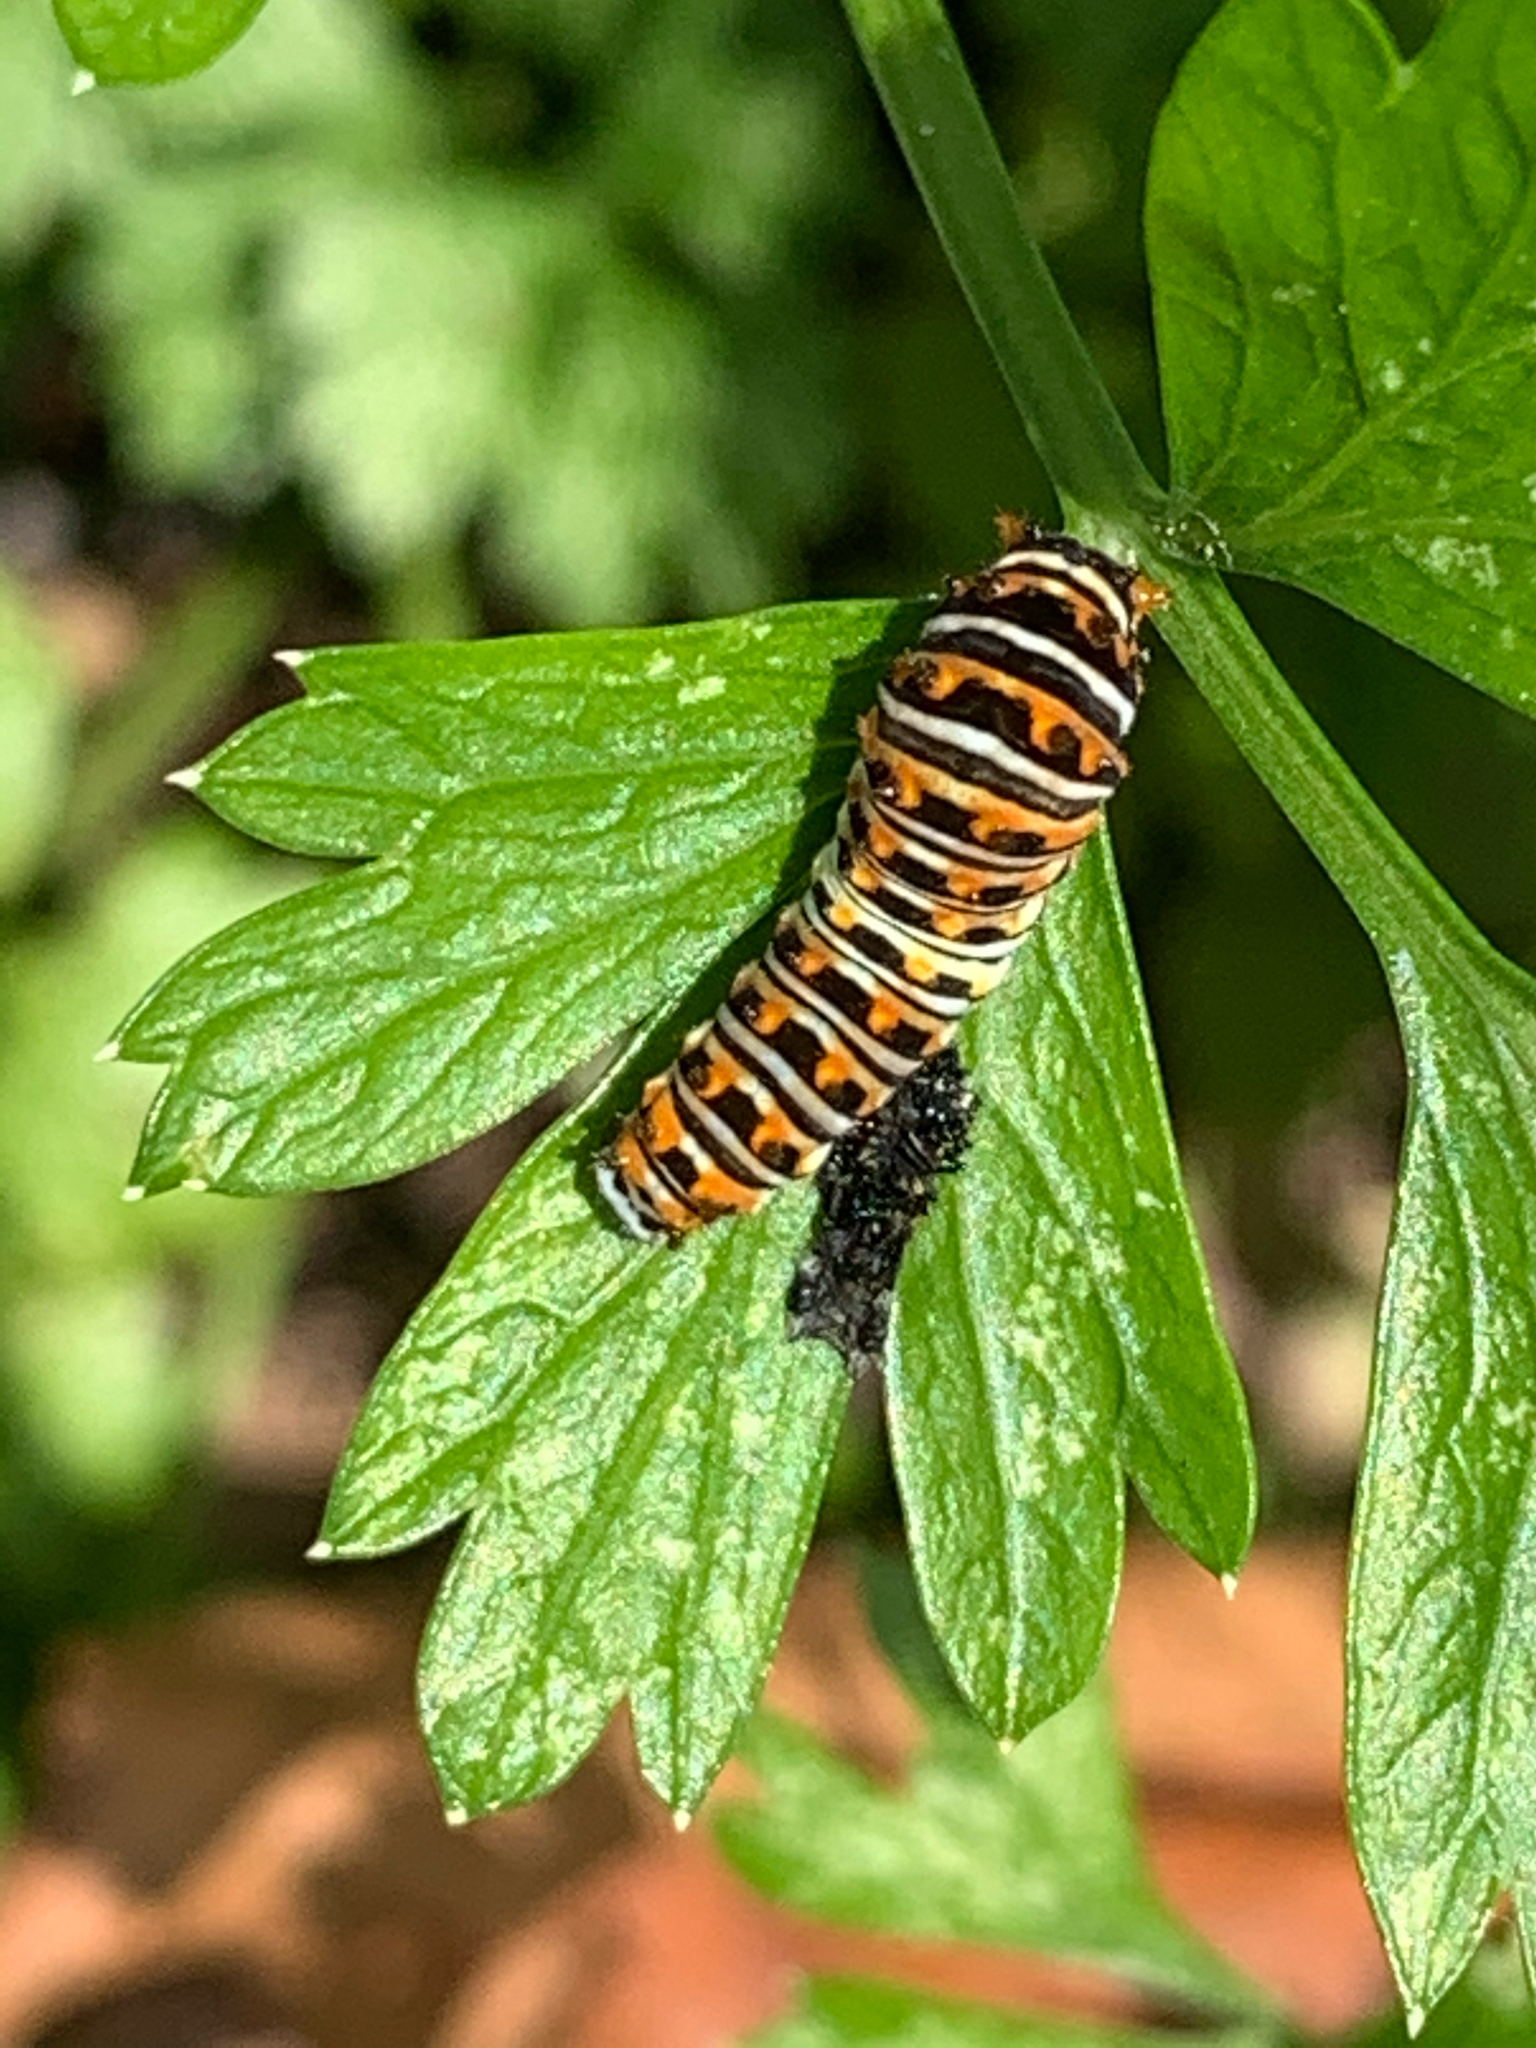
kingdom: Animalia
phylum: Arthropoda
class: Insecta
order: Lepidoptera
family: Papilionidae
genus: Papilio
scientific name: Papilio polyxenes
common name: Black swallowtail
